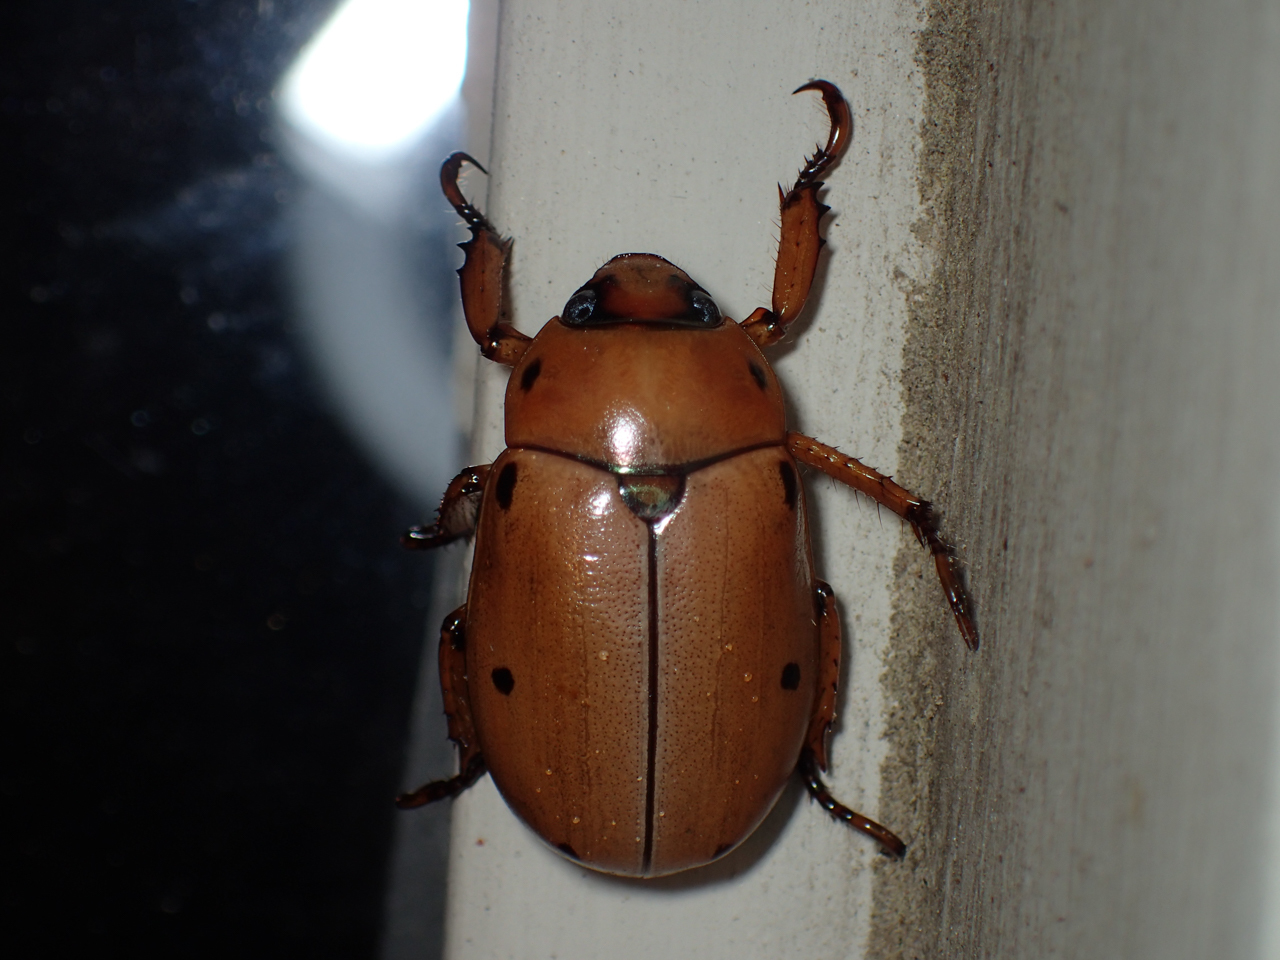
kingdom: Animalia
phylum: Arthropoda
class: Insecta
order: Coleoptera
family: Scarabaeidae
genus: Pelidnota
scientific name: Pelidnota punctata
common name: Grapevine beetle
